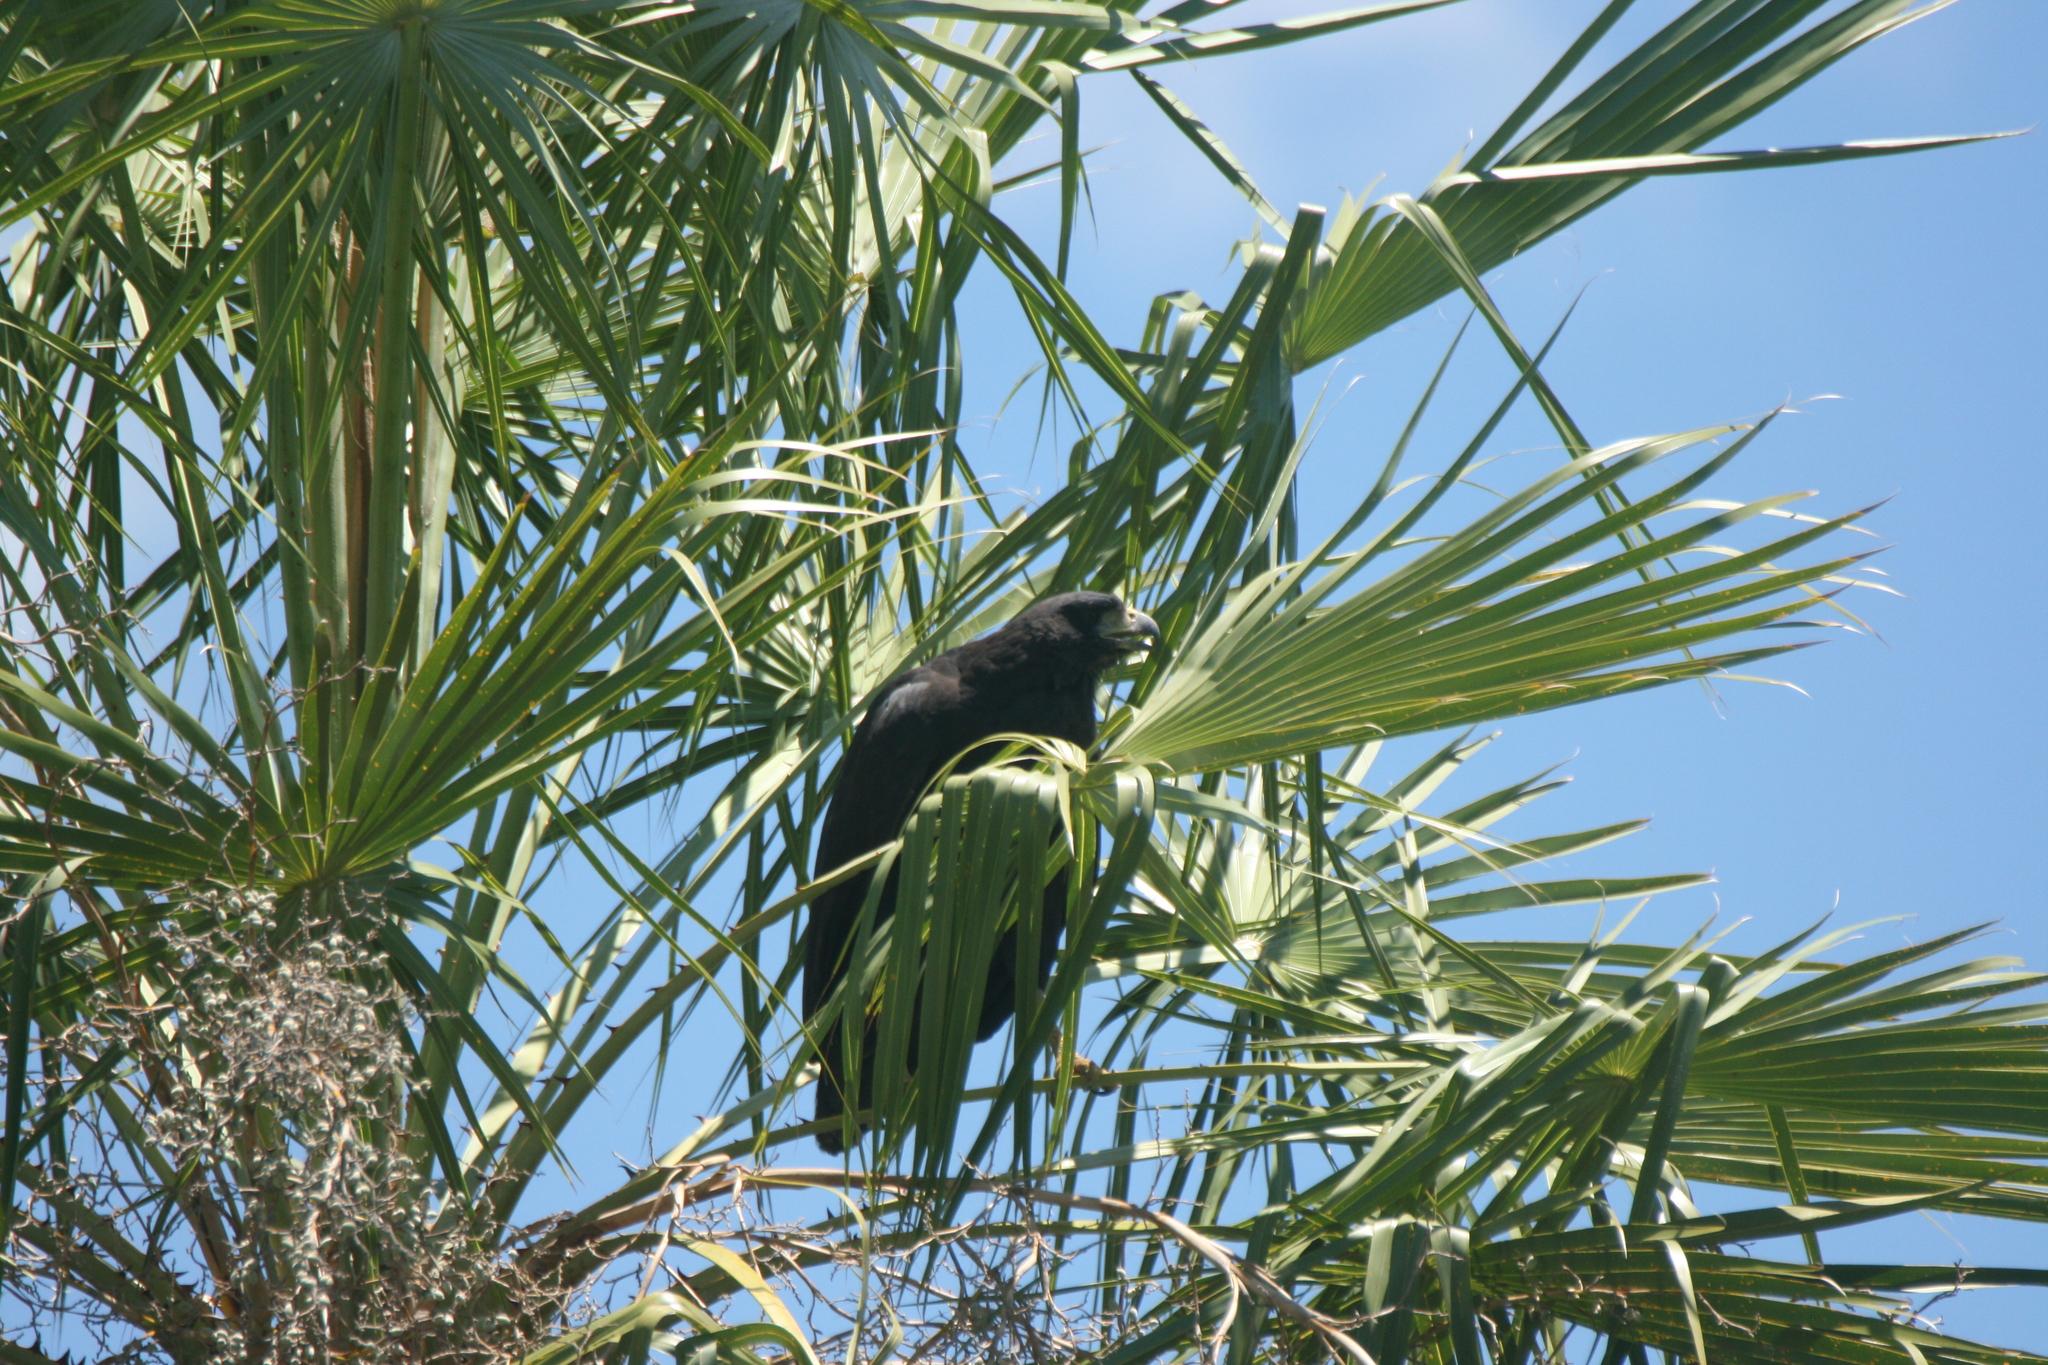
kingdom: Animalia
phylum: Chordata
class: Aves
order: Accipitriformes
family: Accipitridae
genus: Buteogallus
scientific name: Buteogallus urubitinga
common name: Great black hawk
